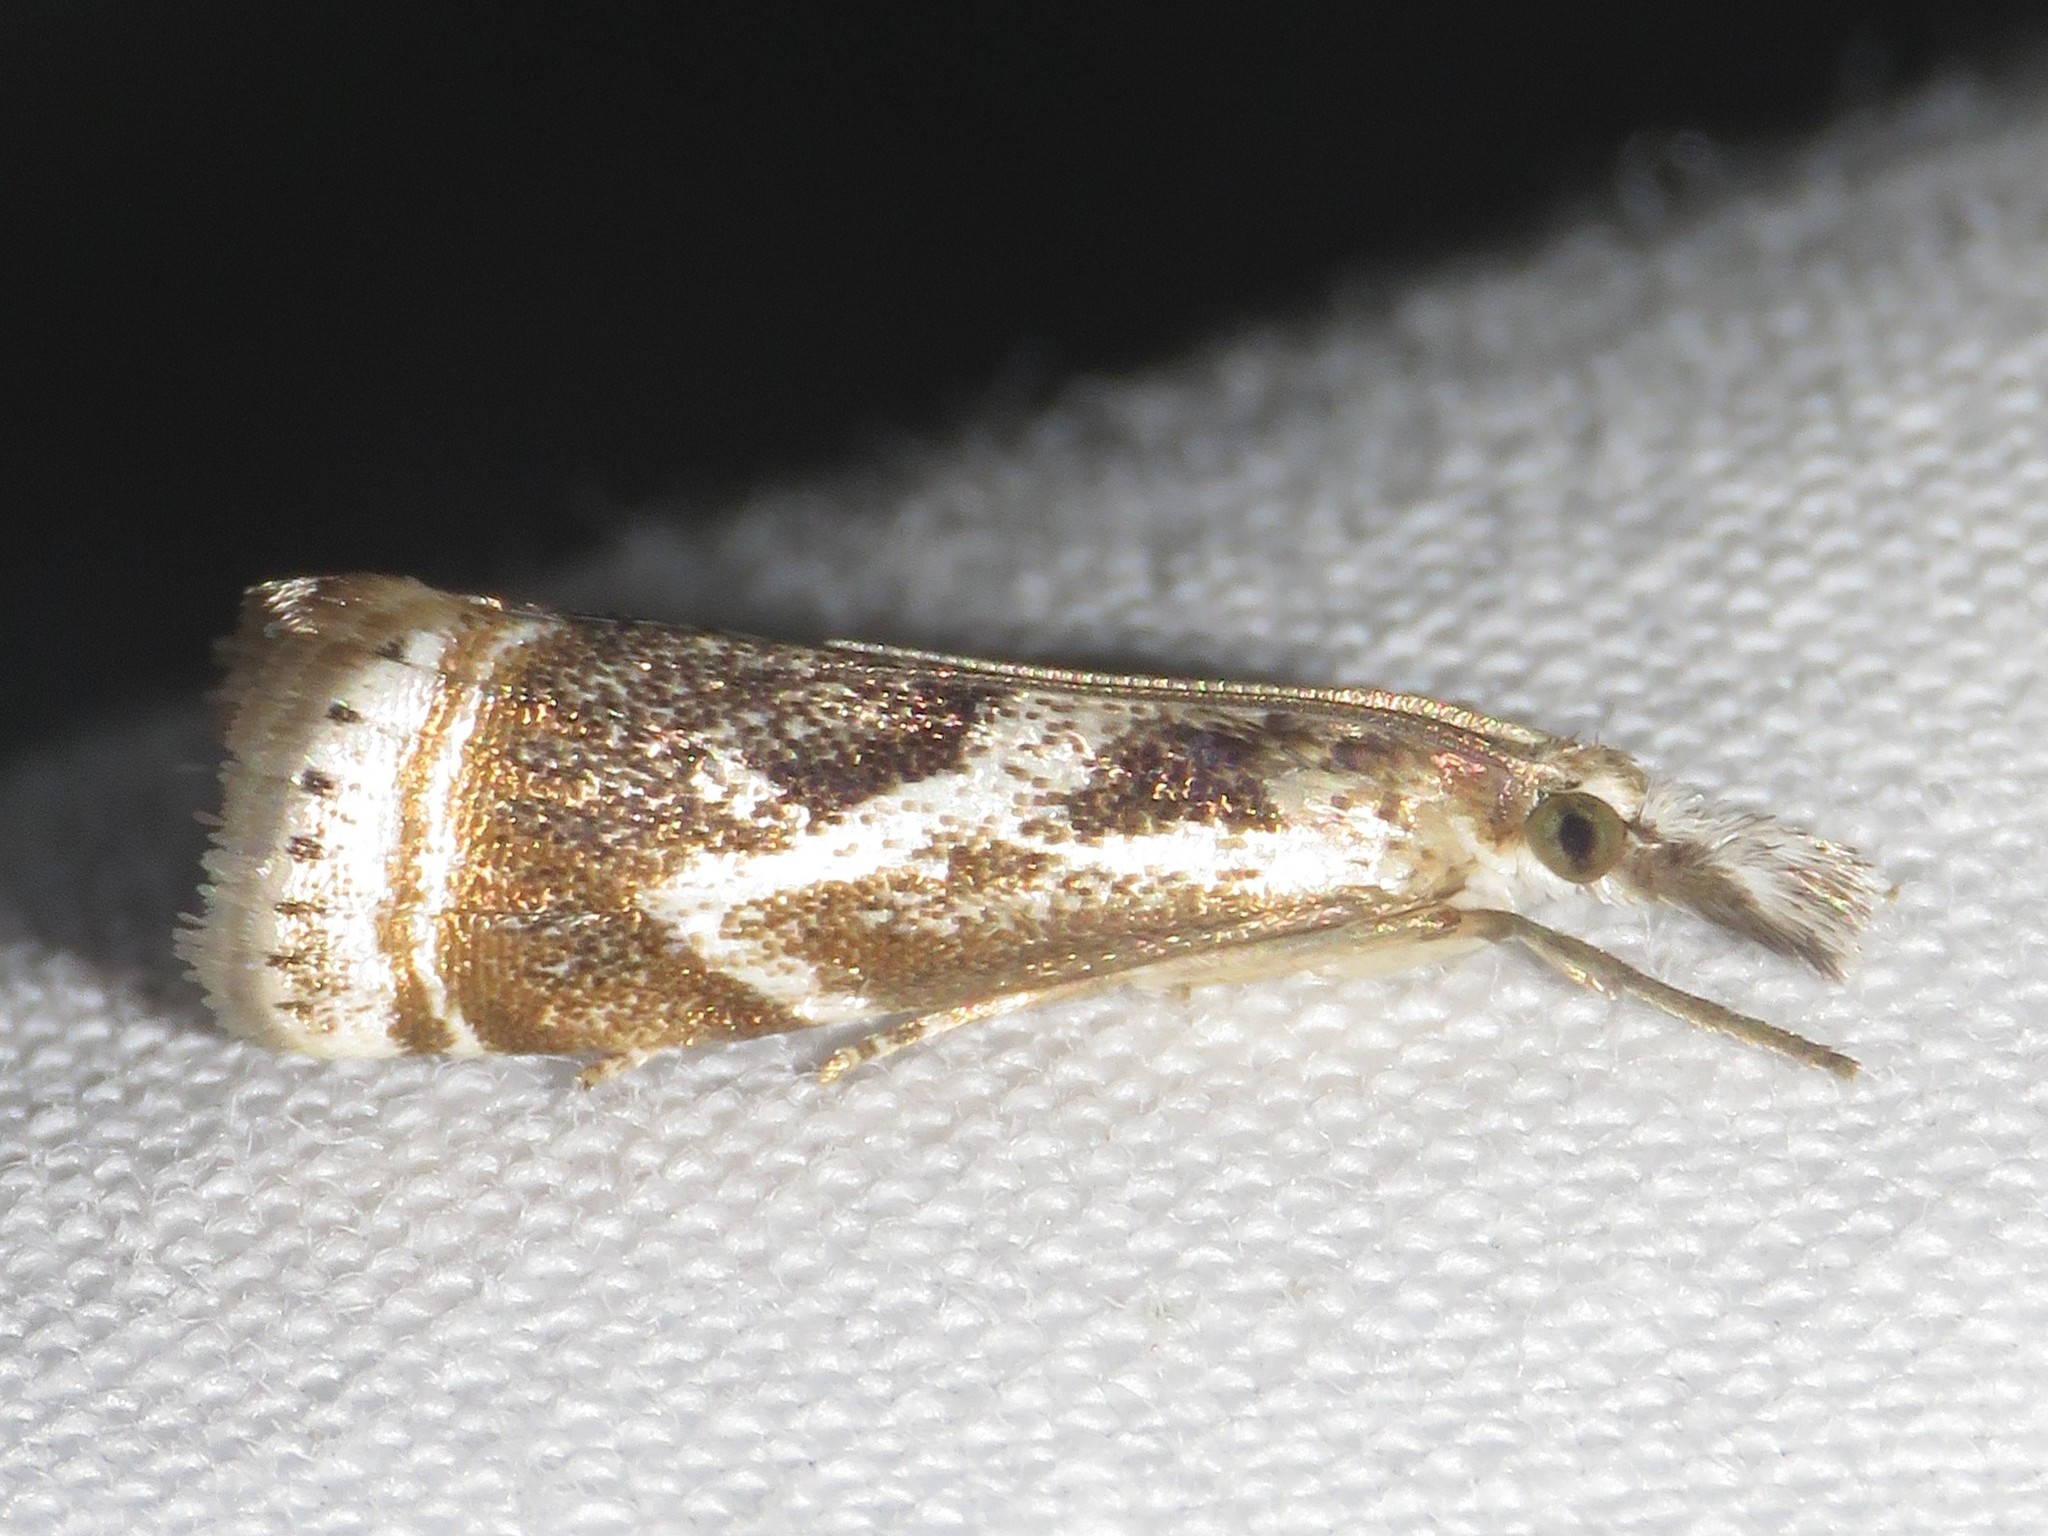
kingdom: Animalia
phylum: Arthropoda
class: Insecta
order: Lepidoptera
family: Crambidae
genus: Microcrambus
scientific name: Microcrambus elegans
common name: Elegant grass-veneer
